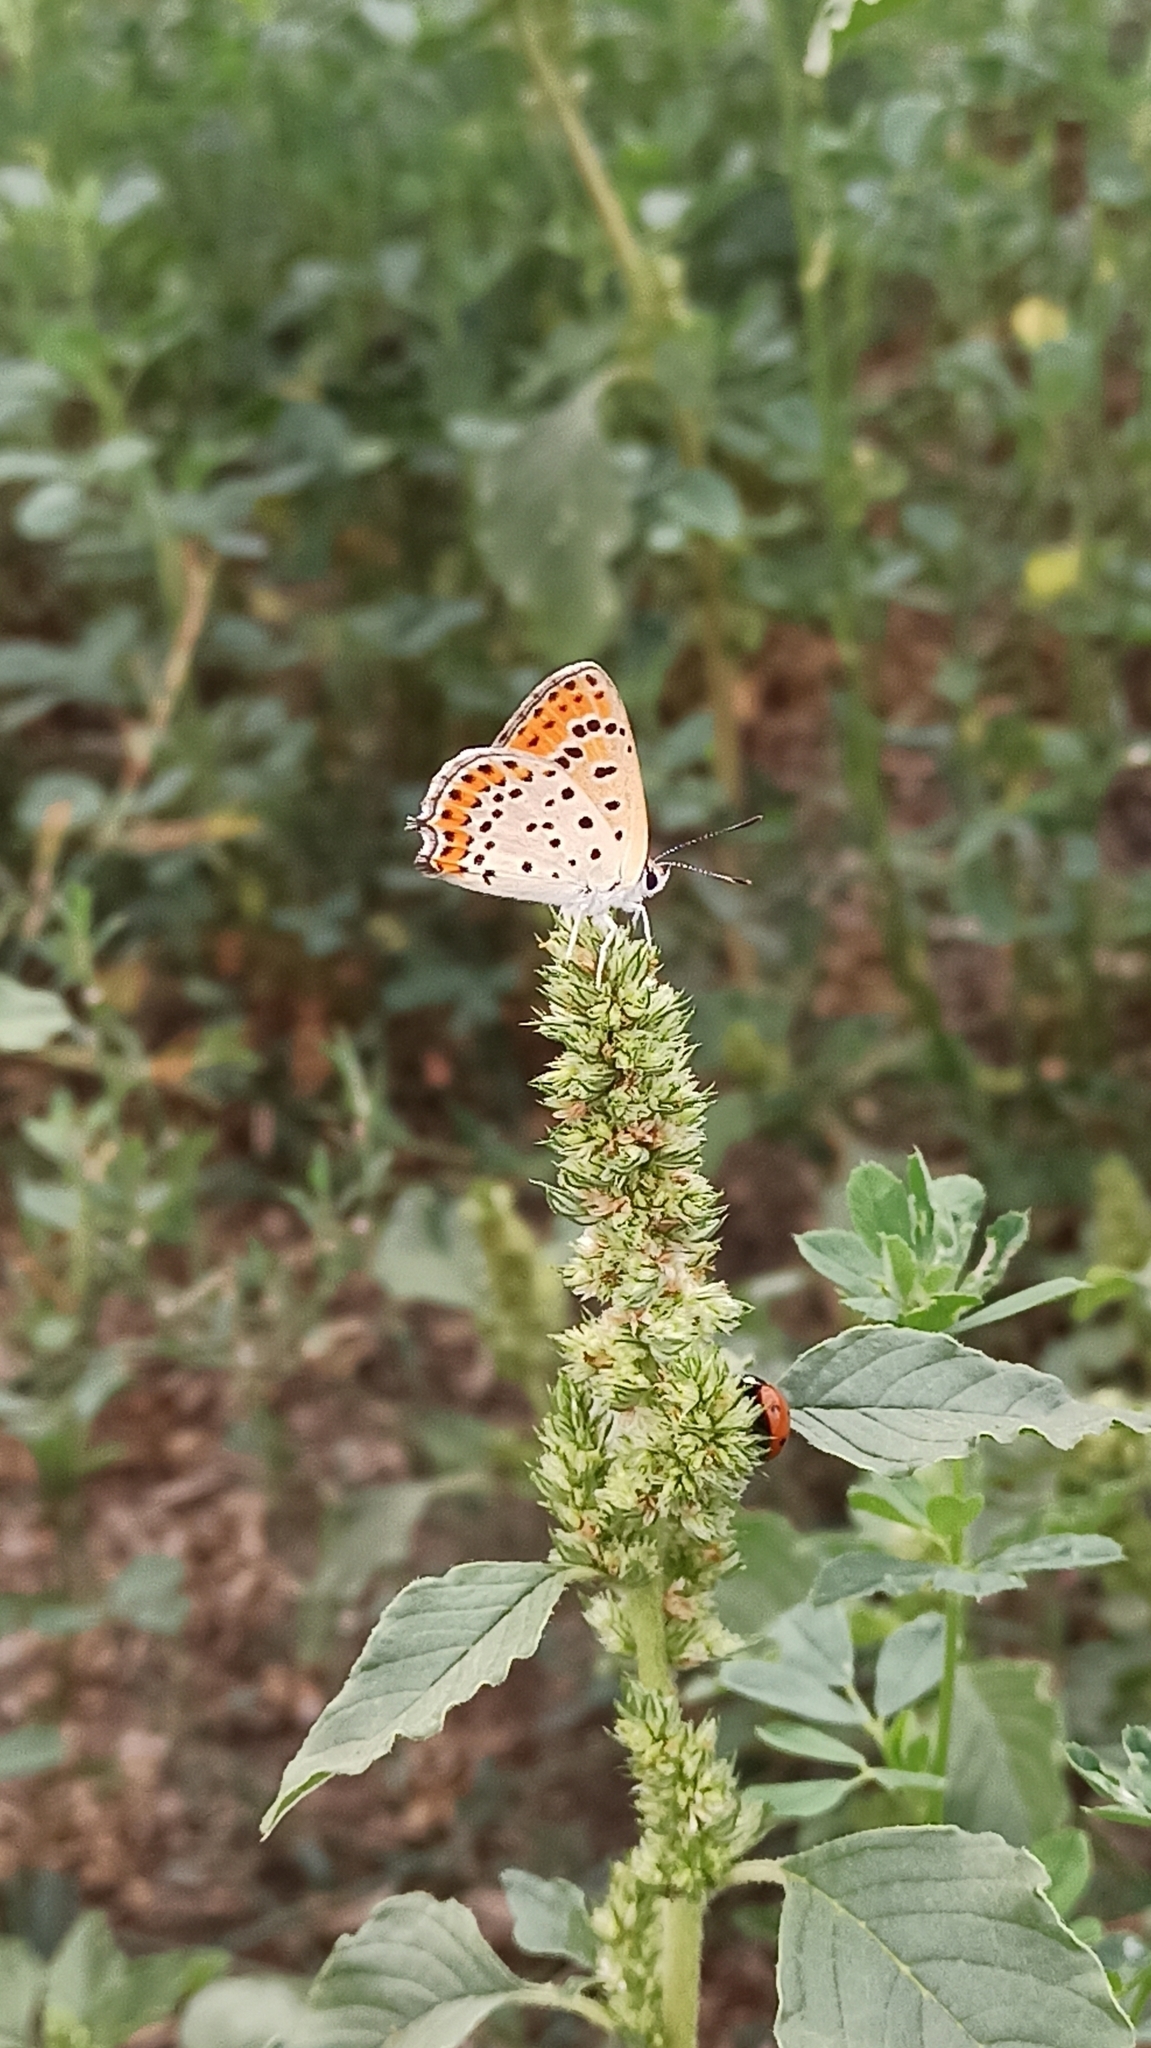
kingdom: Animalia
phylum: Arthropoda
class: Insecta
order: Lepidoptera
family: Lycaenidae
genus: Thersamonia
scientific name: Thersamonia thersamon
